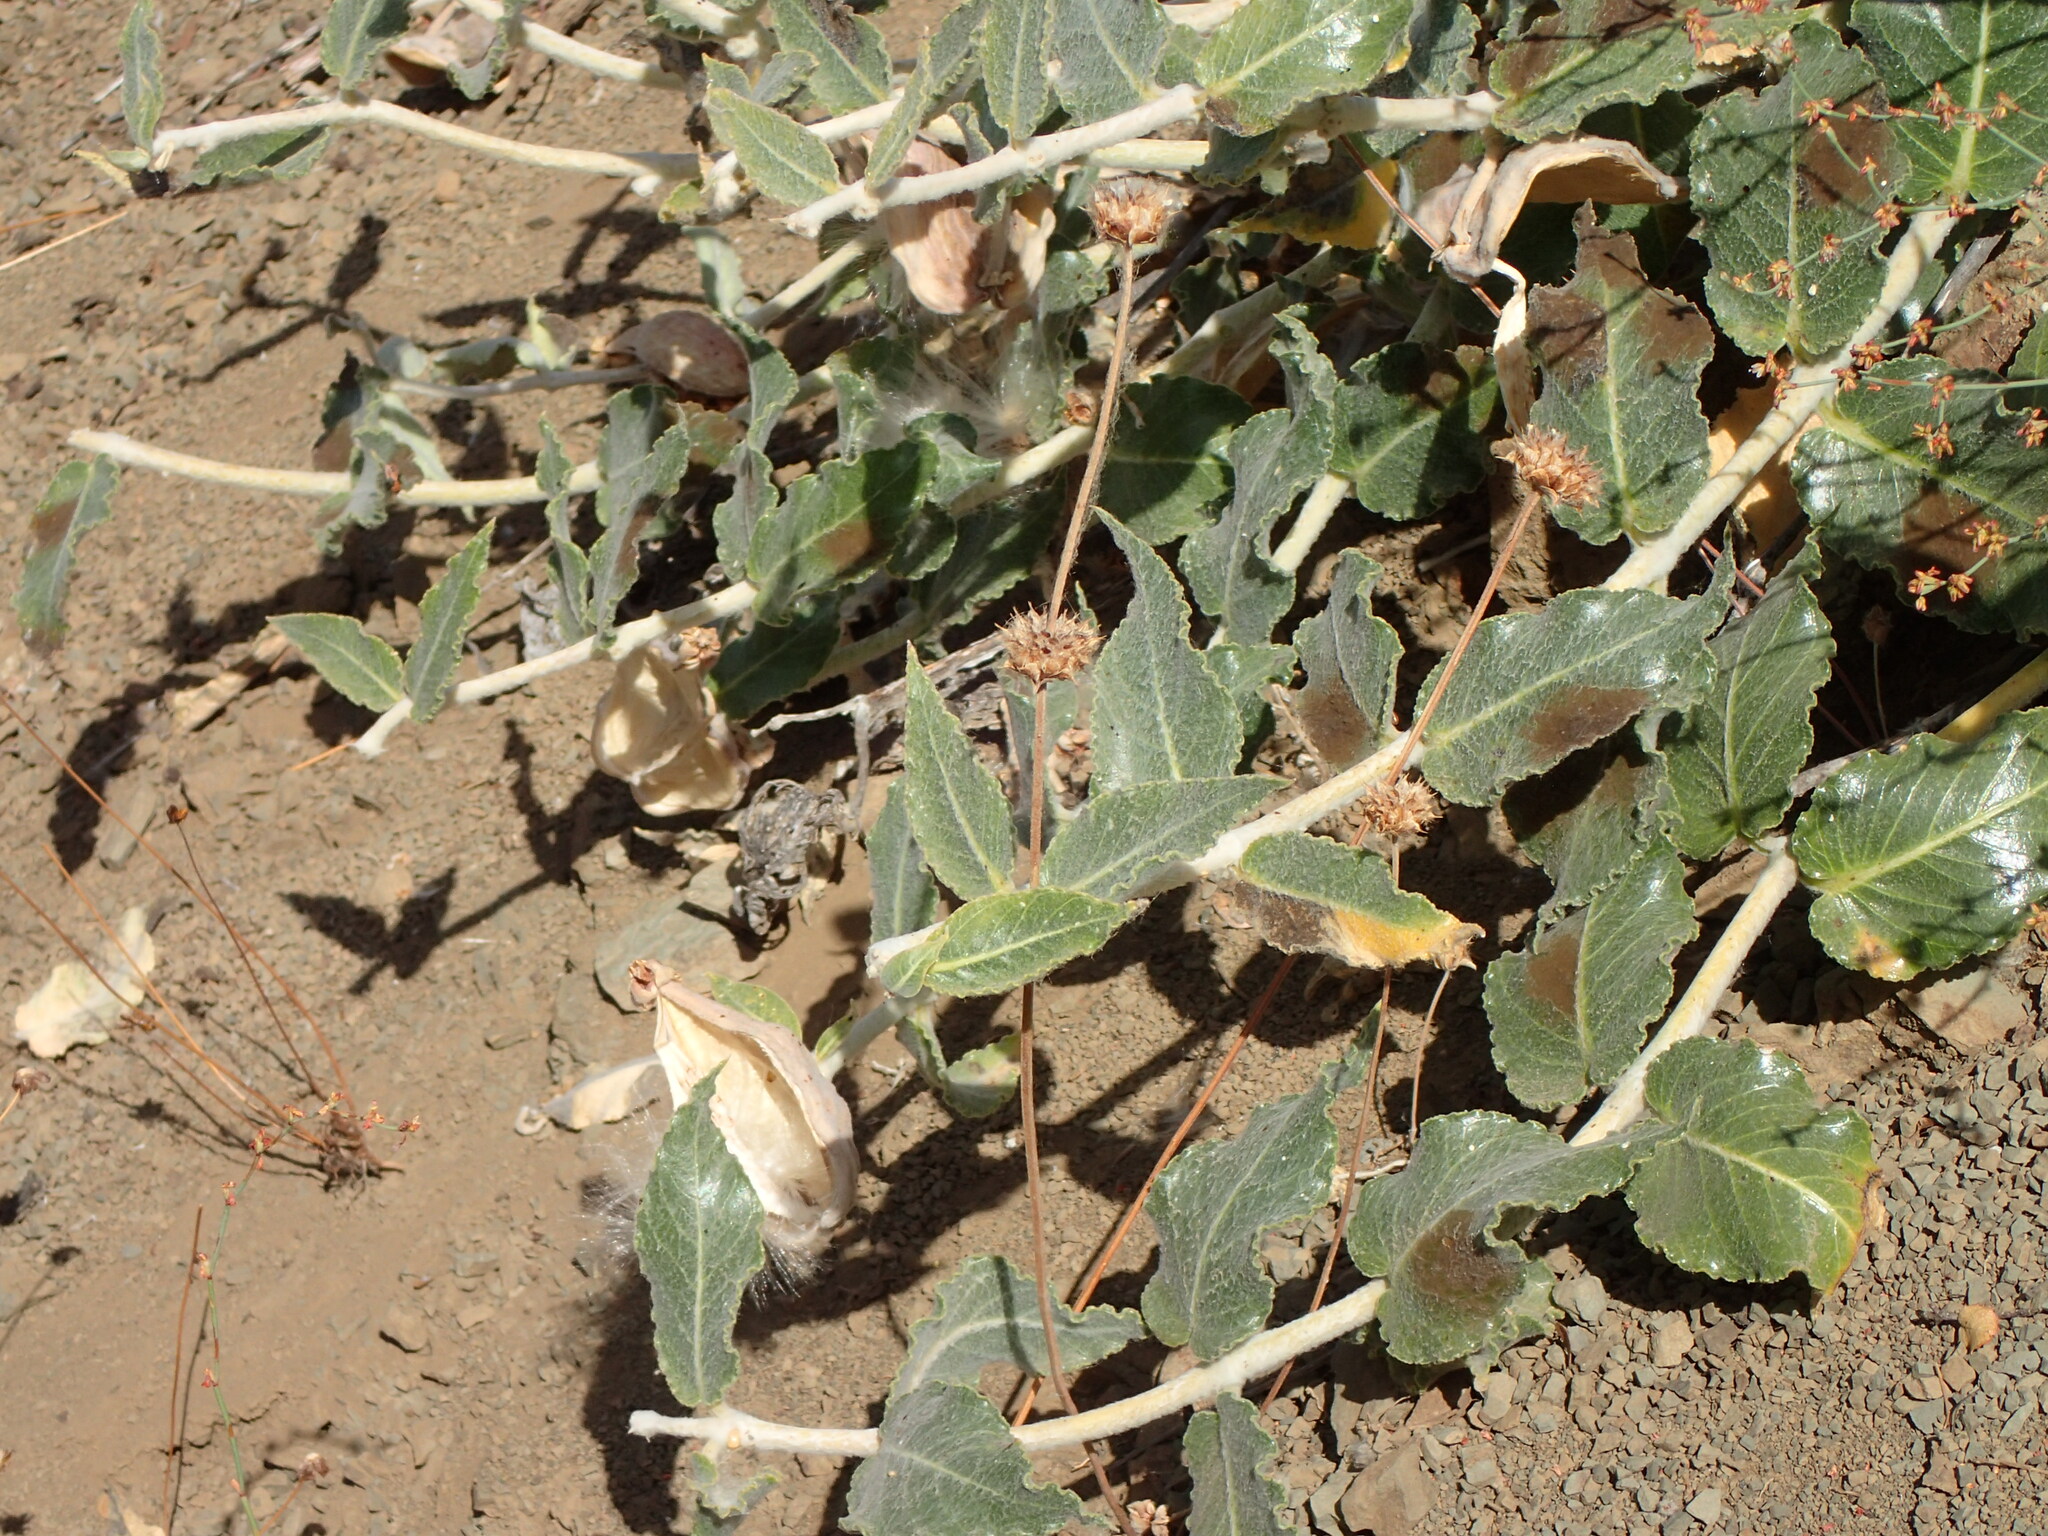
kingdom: Plantae
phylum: Tracheophyta
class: Magnoliopsida
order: Gentianales
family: Apocynaceae
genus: Asclepias
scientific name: Asclepias californica
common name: California milkweed
